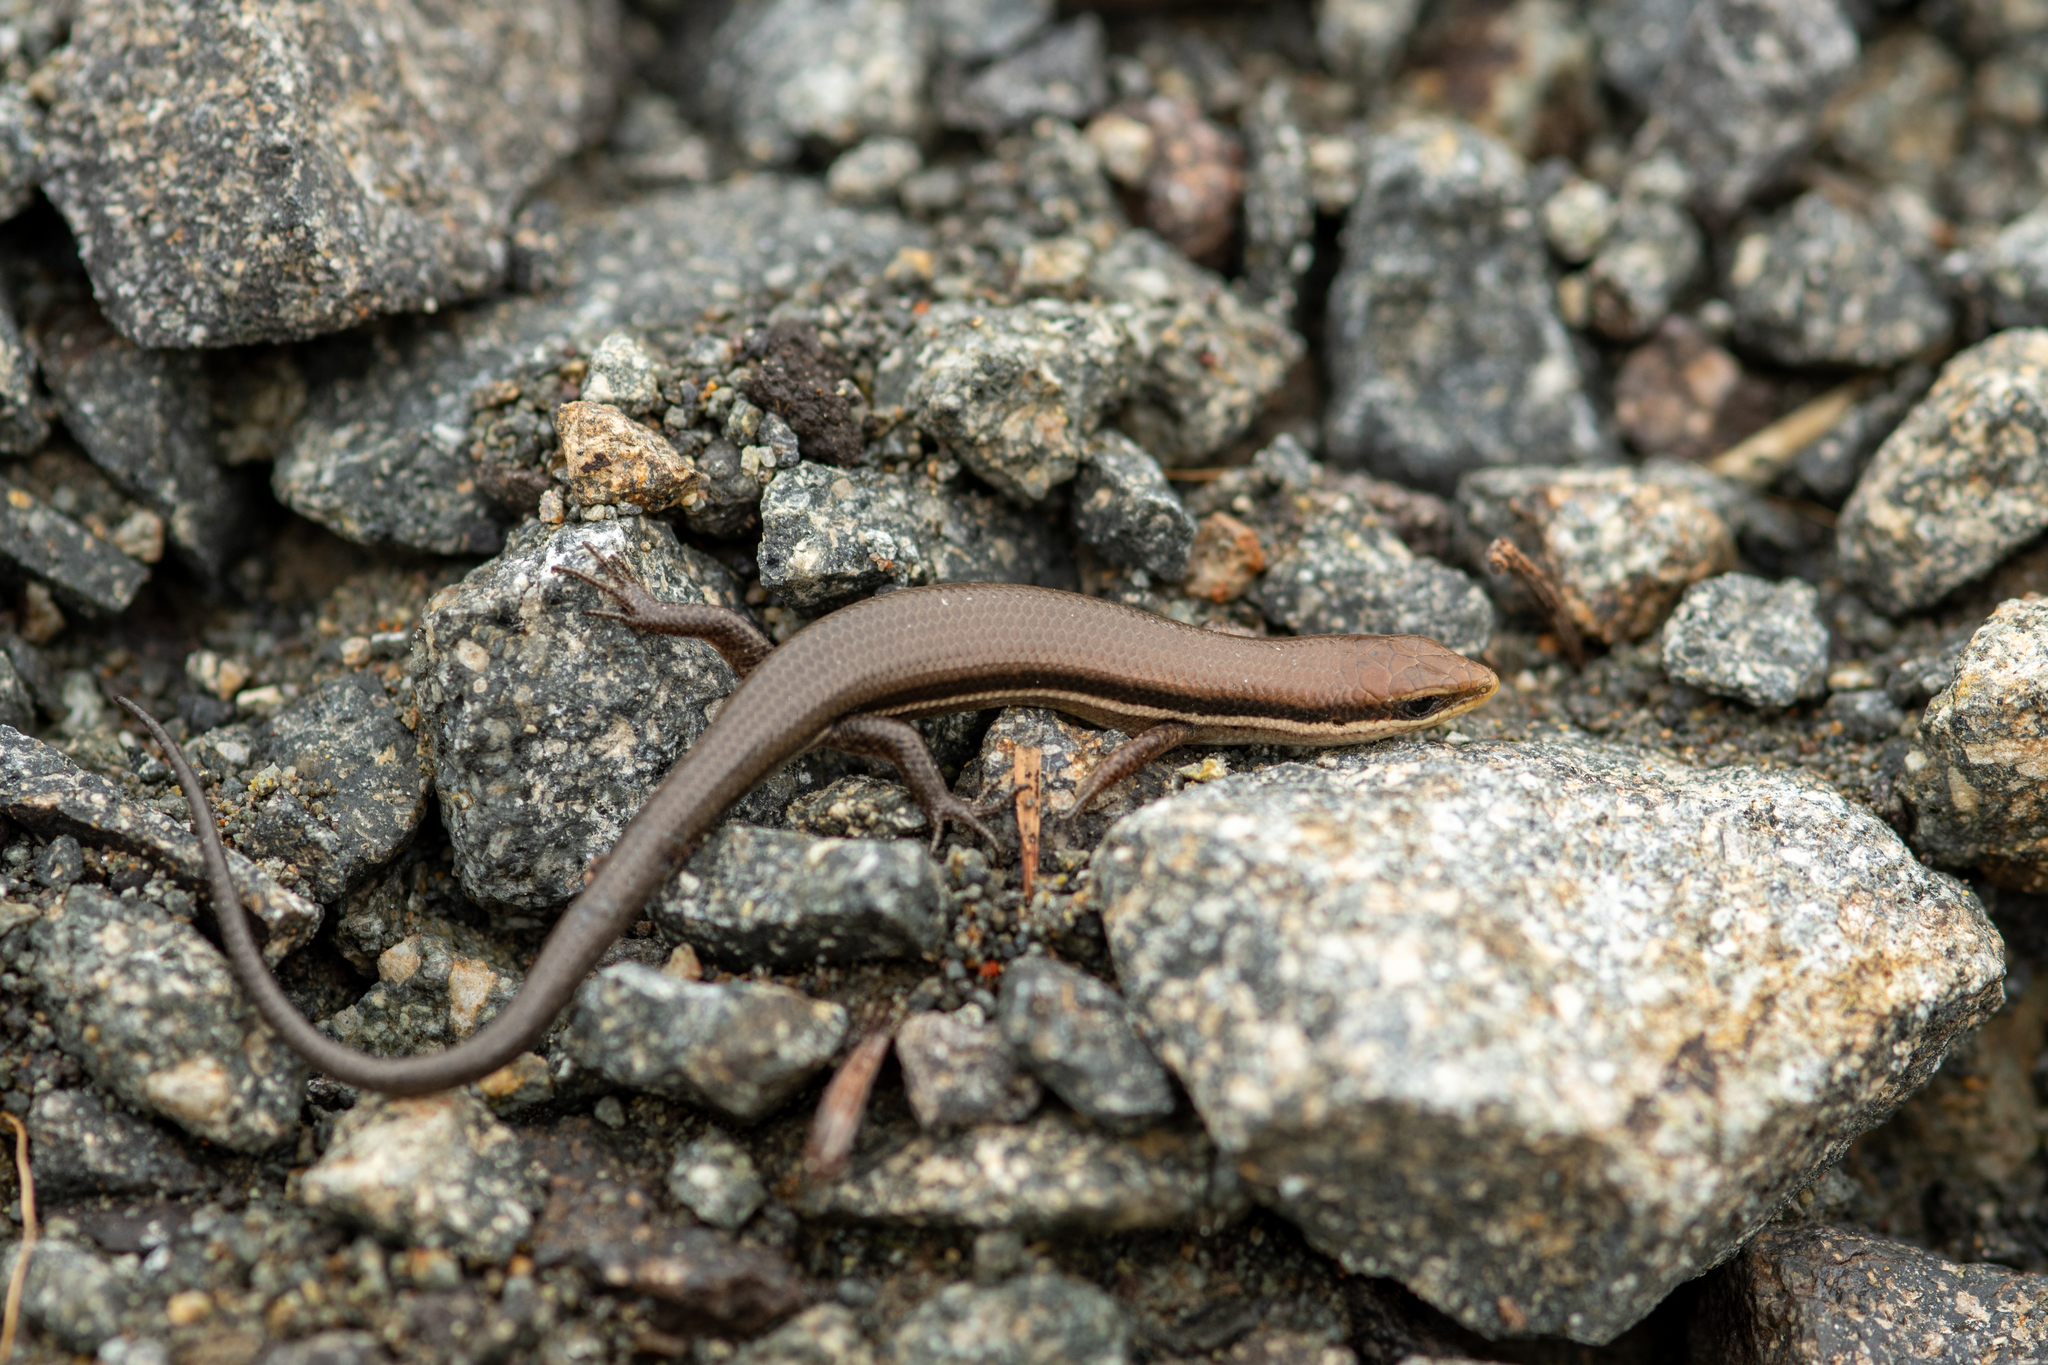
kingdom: Animalia
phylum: Chordata
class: Squamata
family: Scincidae
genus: Marisora
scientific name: Marisora brachypoda
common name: Western middle america skink
